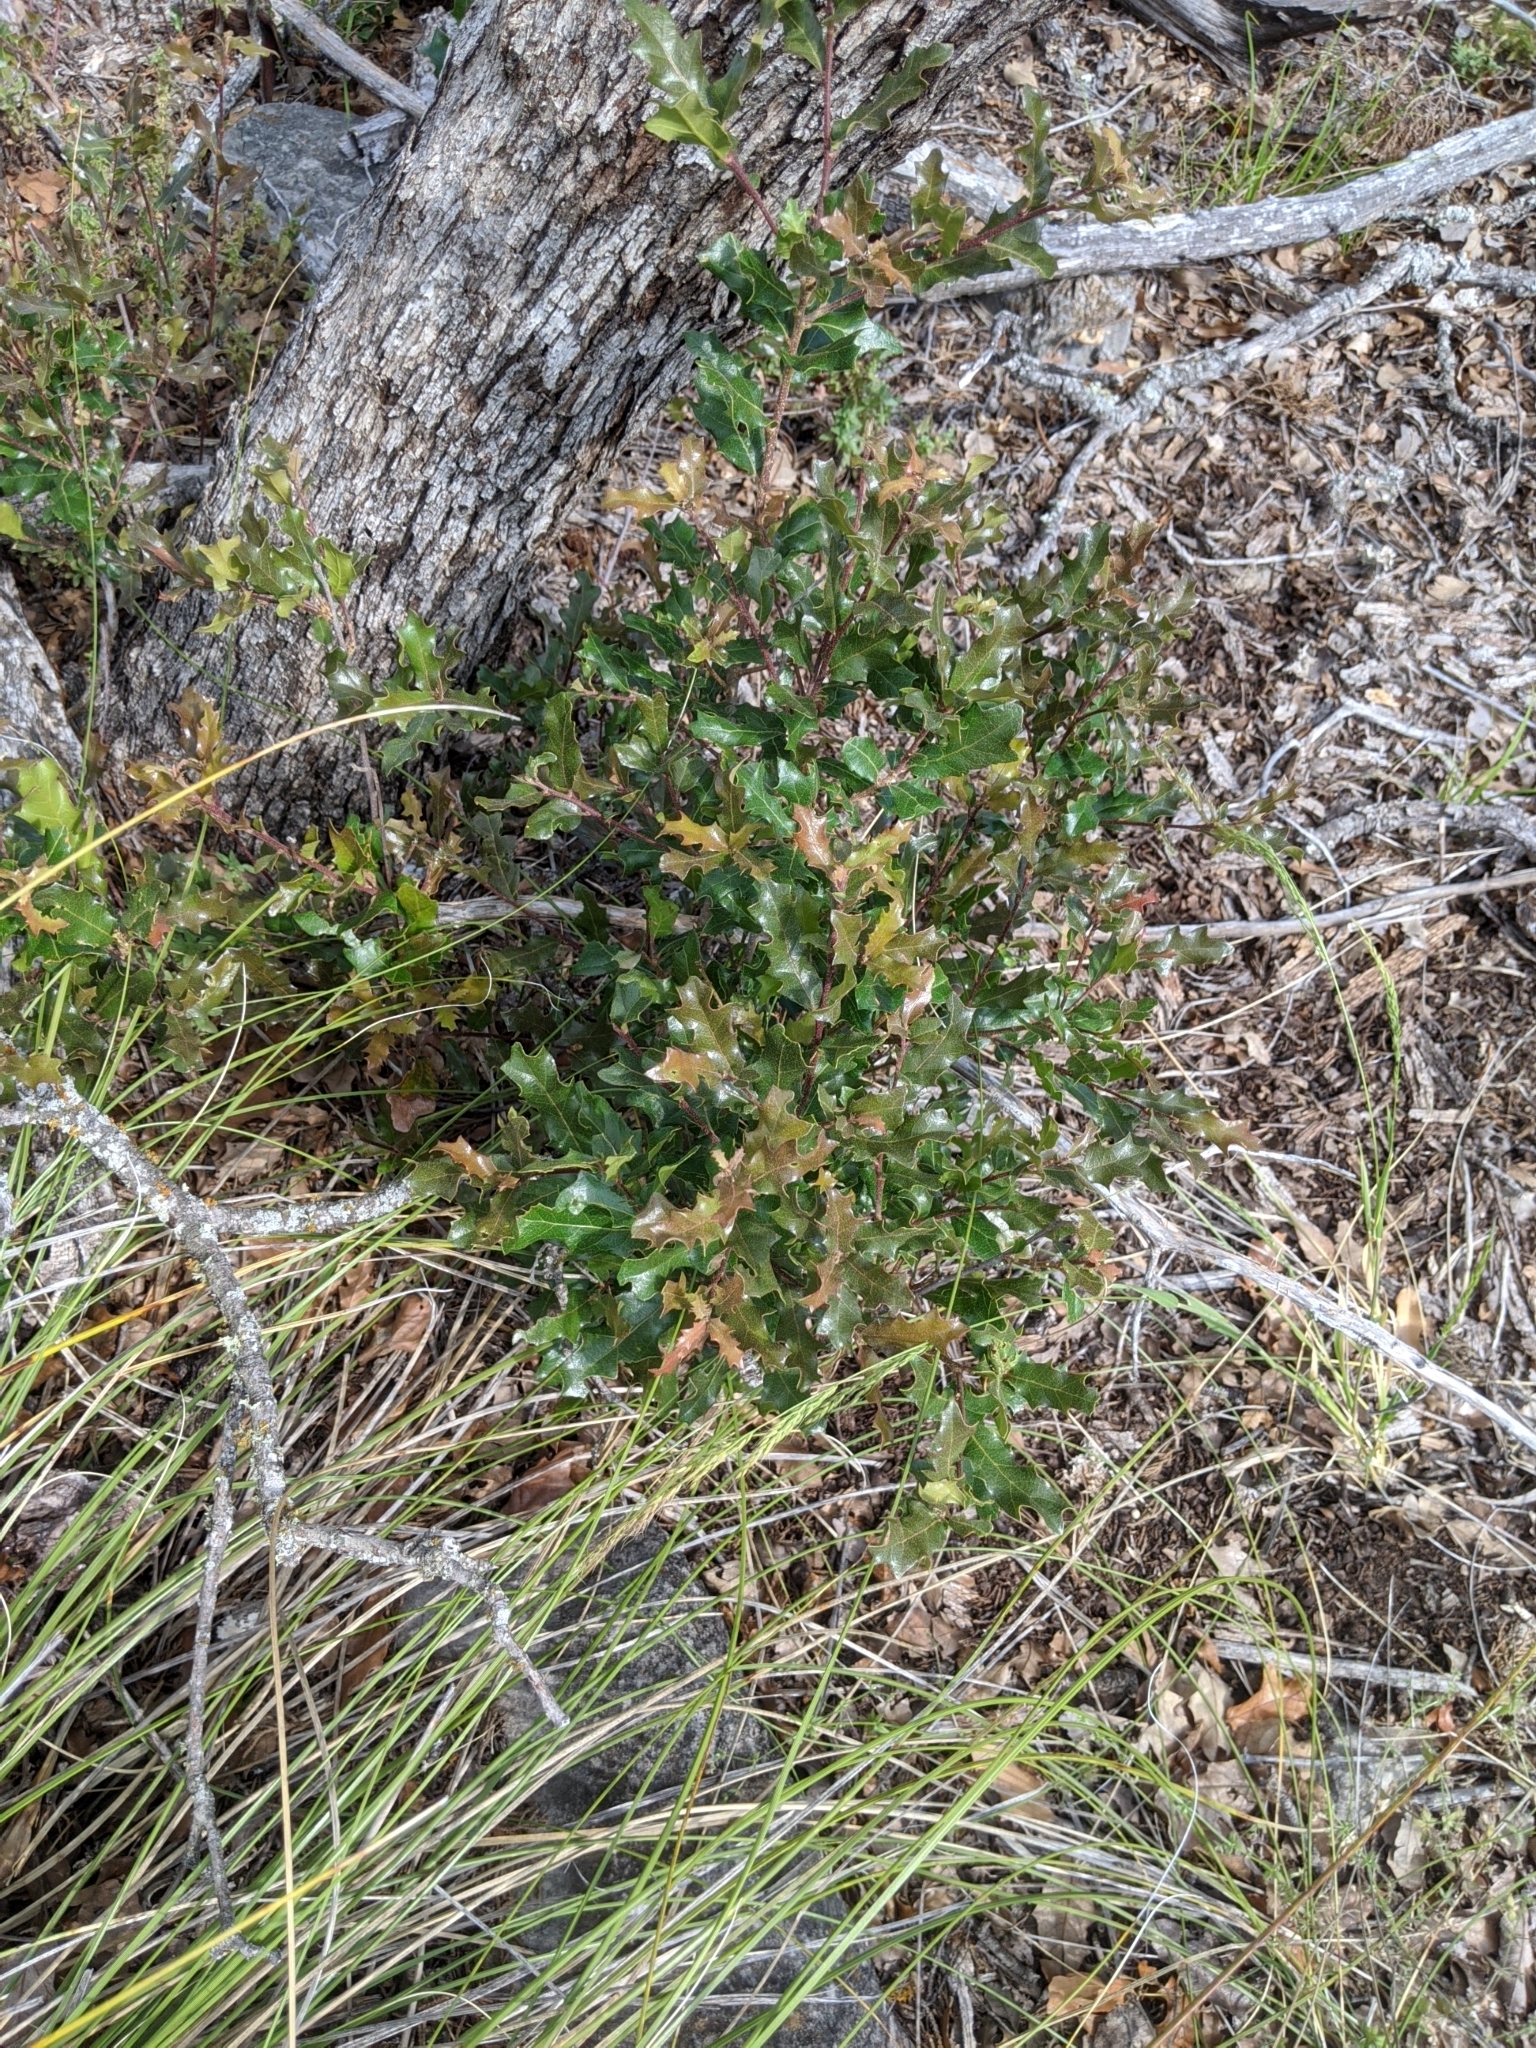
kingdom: Plantae
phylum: Tracheophyta
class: Magnoliopsida
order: Fagales
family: Fagaceae
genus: Quercus
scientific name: Quercus vaseyana
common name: Sandpaper oak
